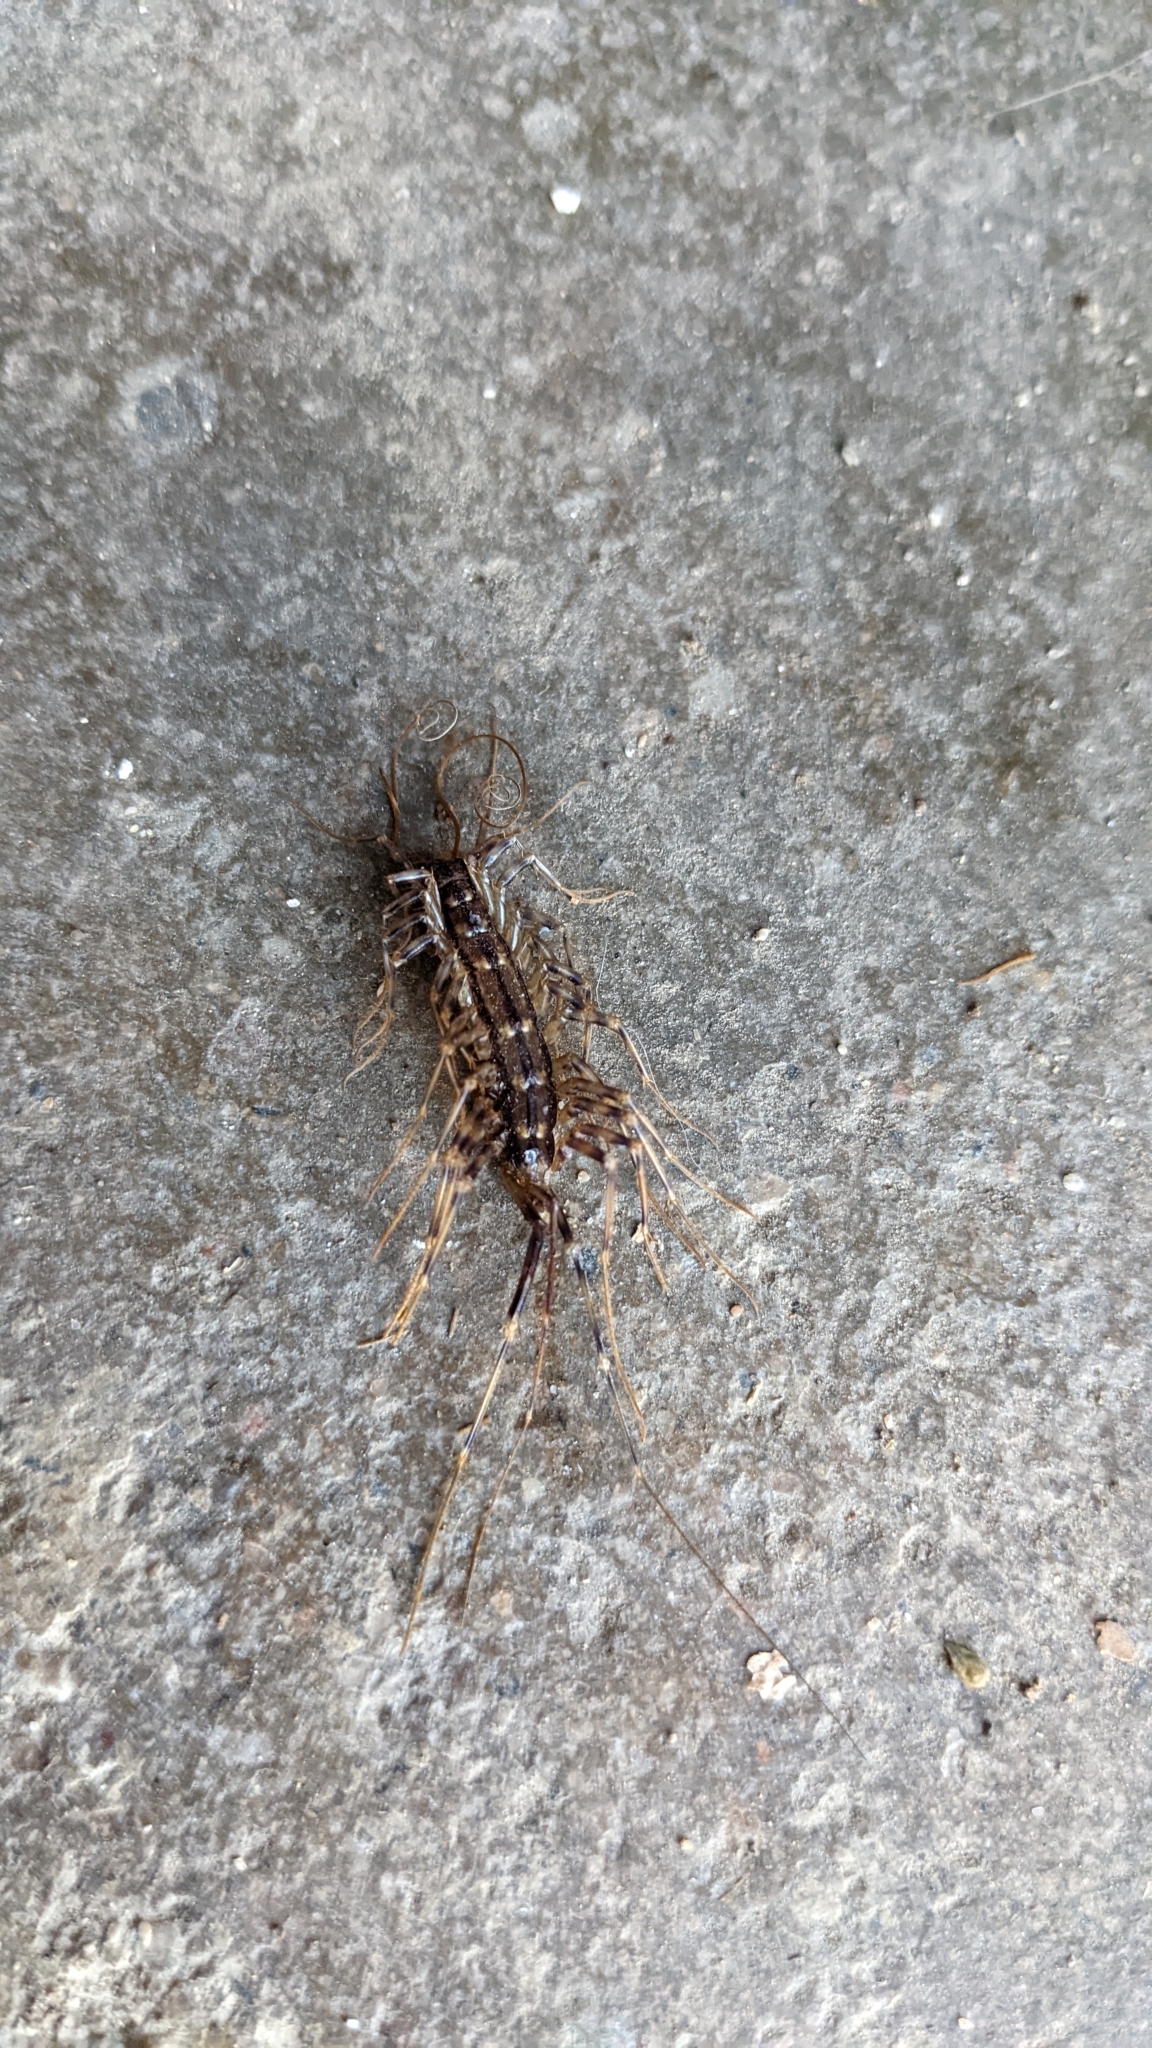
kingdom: Animalia
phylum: Arthropoda
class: Chilopoda
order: Scutigeromorpha
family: Scutigeridae
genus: Scutigera
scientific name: Scutigera coleoptrata
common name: House centipede
